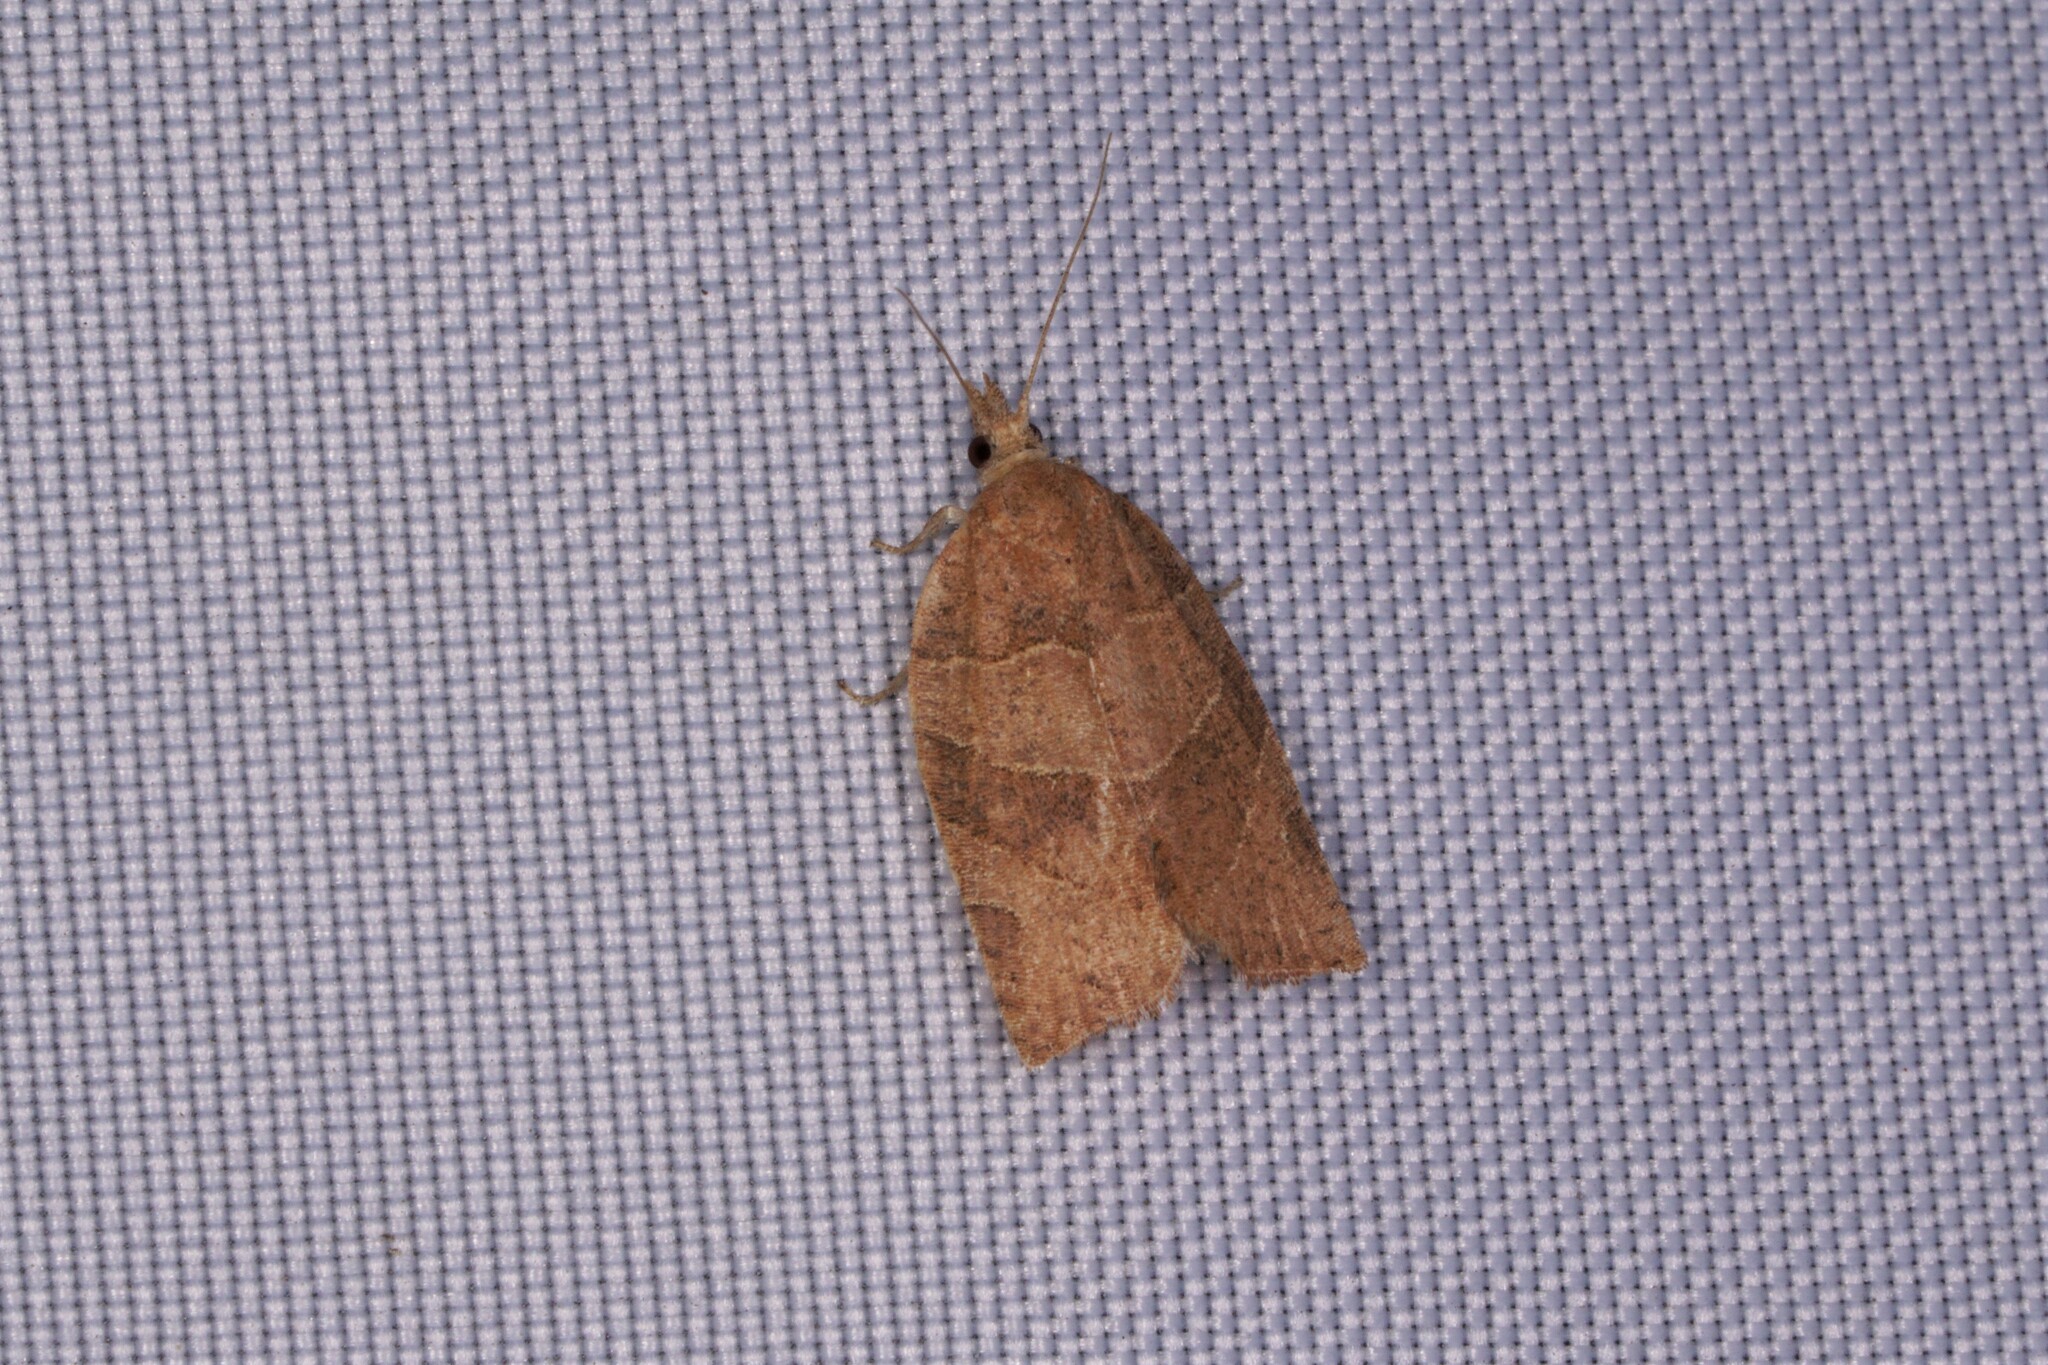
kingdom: Animalia
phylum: Arthropoda
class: Insecta
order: Lepidoptera
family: Tortricidae
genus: Pandemis
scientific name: Pandemis limitata
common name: Three-lined leafroller moth
